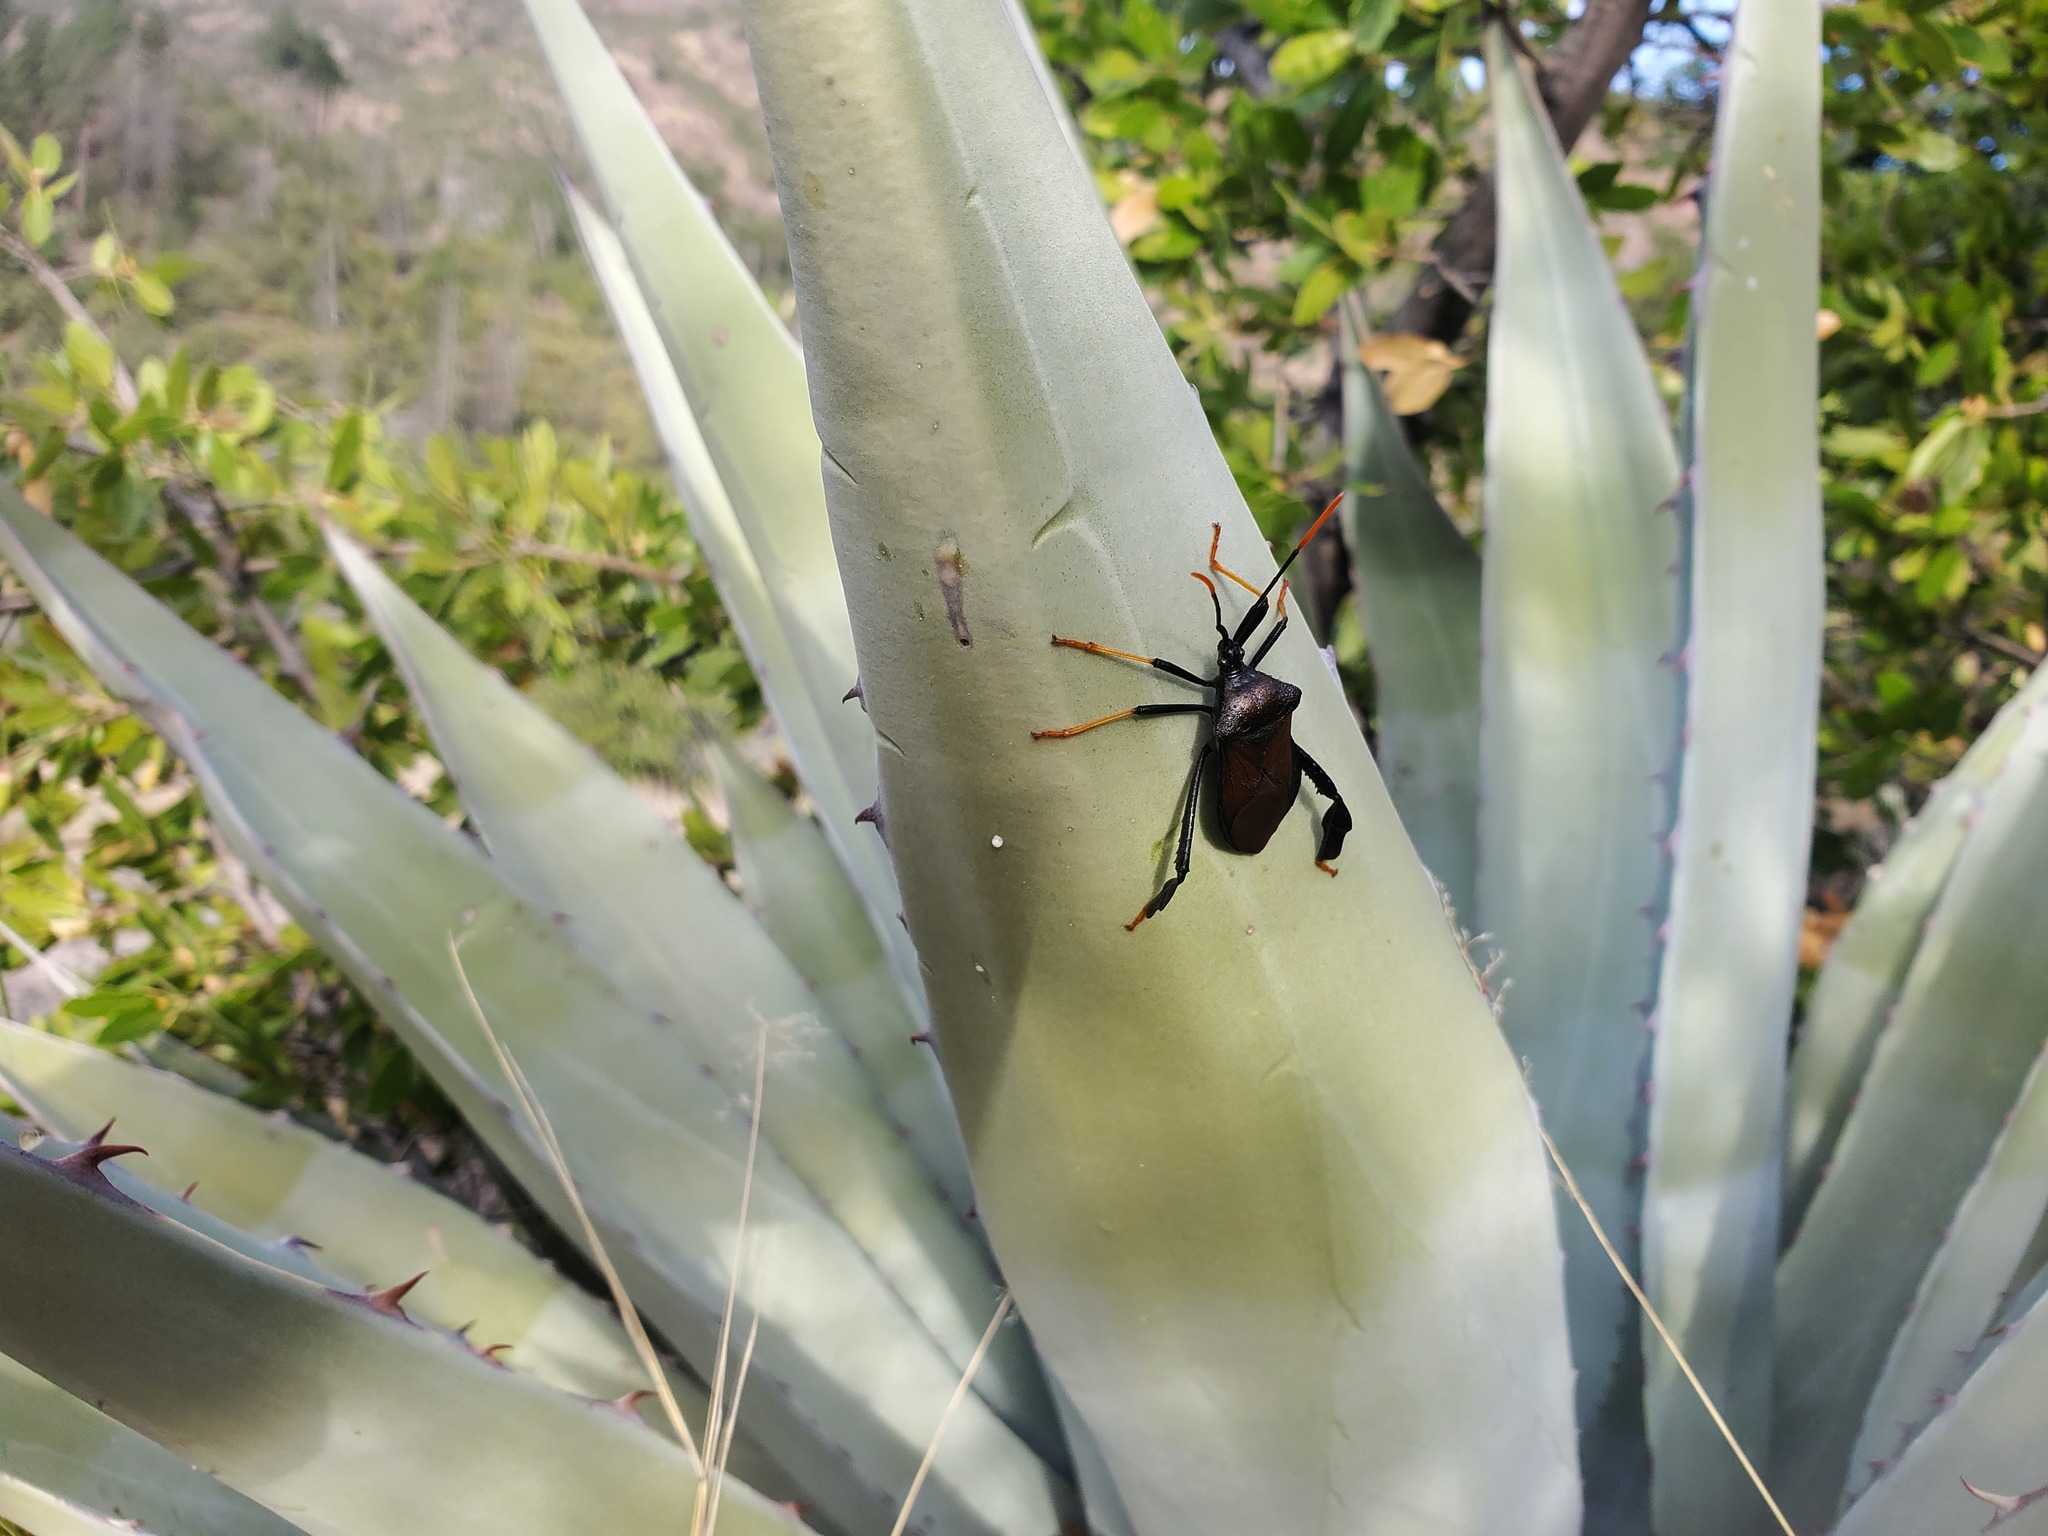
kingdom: Animalia
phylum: Arthropoda
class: Insecta
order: Hemiptera
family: Coreidae
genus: Acanthocephala
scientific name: Acanthocephala thomasi
